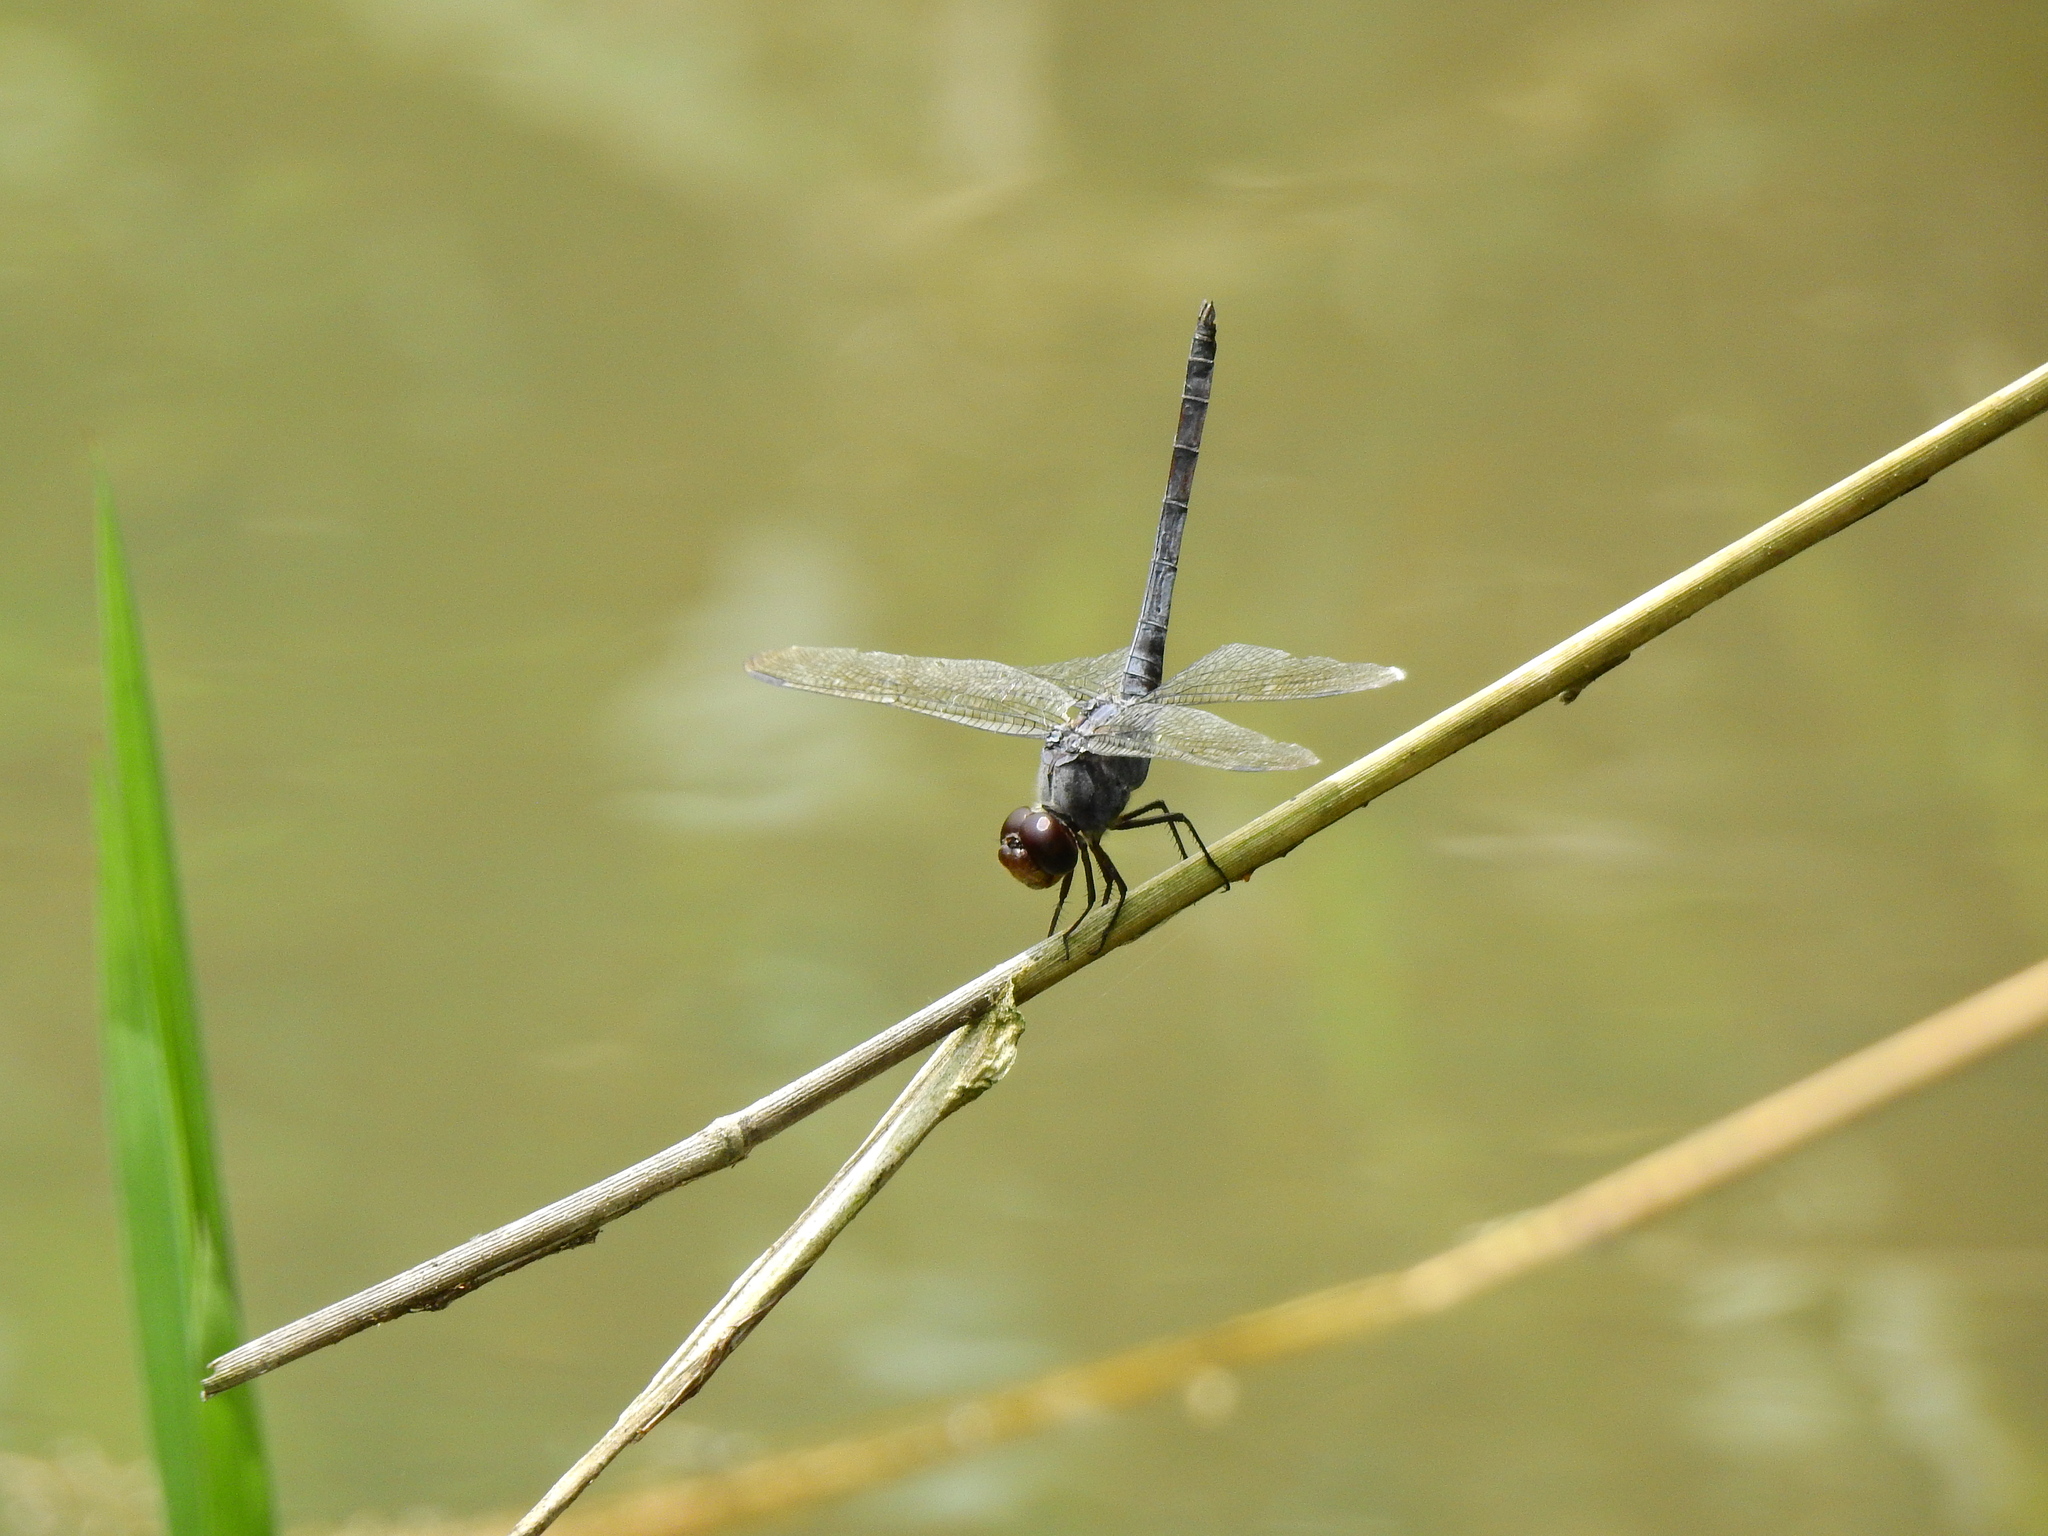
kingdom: Animalia
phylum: Arthropoda
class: Insecta
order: Odonata
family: Libellulidae
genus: Potamarcha
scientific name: Potamarcha congener
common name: Blue chaser
